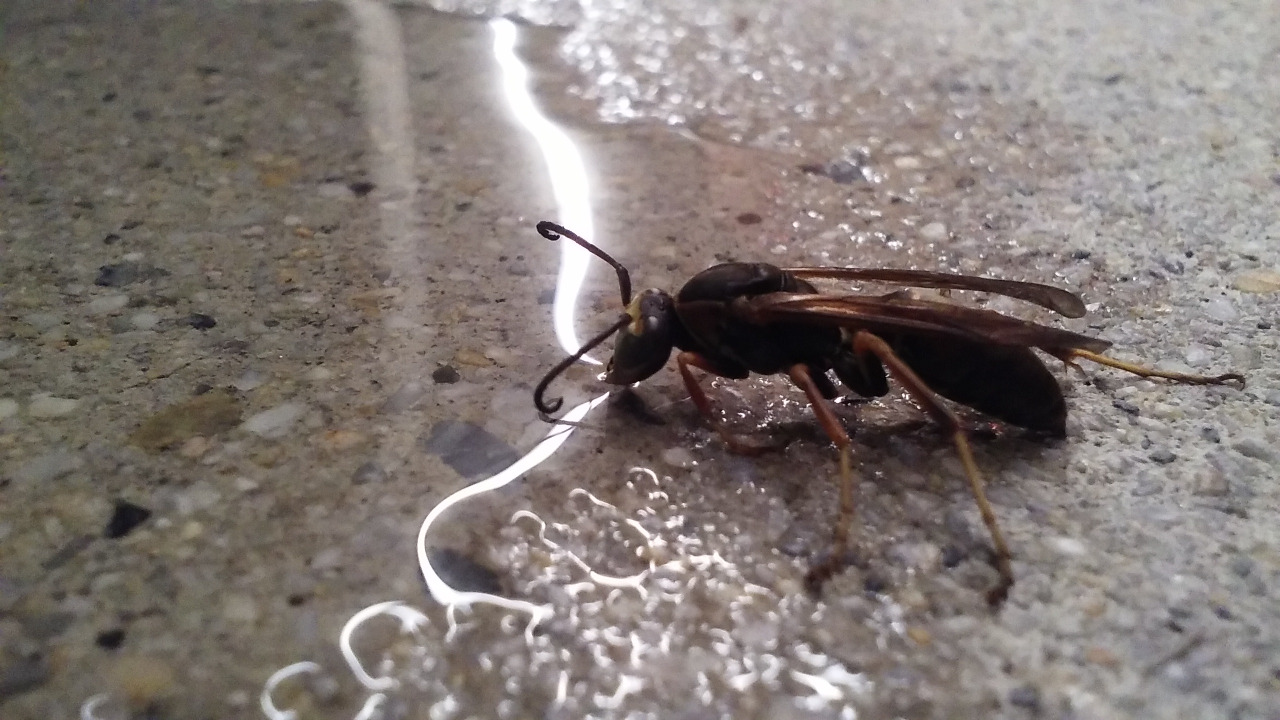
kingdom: Animalia
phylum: Arthropoda
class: Insecta
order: Hymenoptera
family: Eumenidae
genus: Polistes
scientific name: Polistes fuscatus
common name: Dark paper wasp
